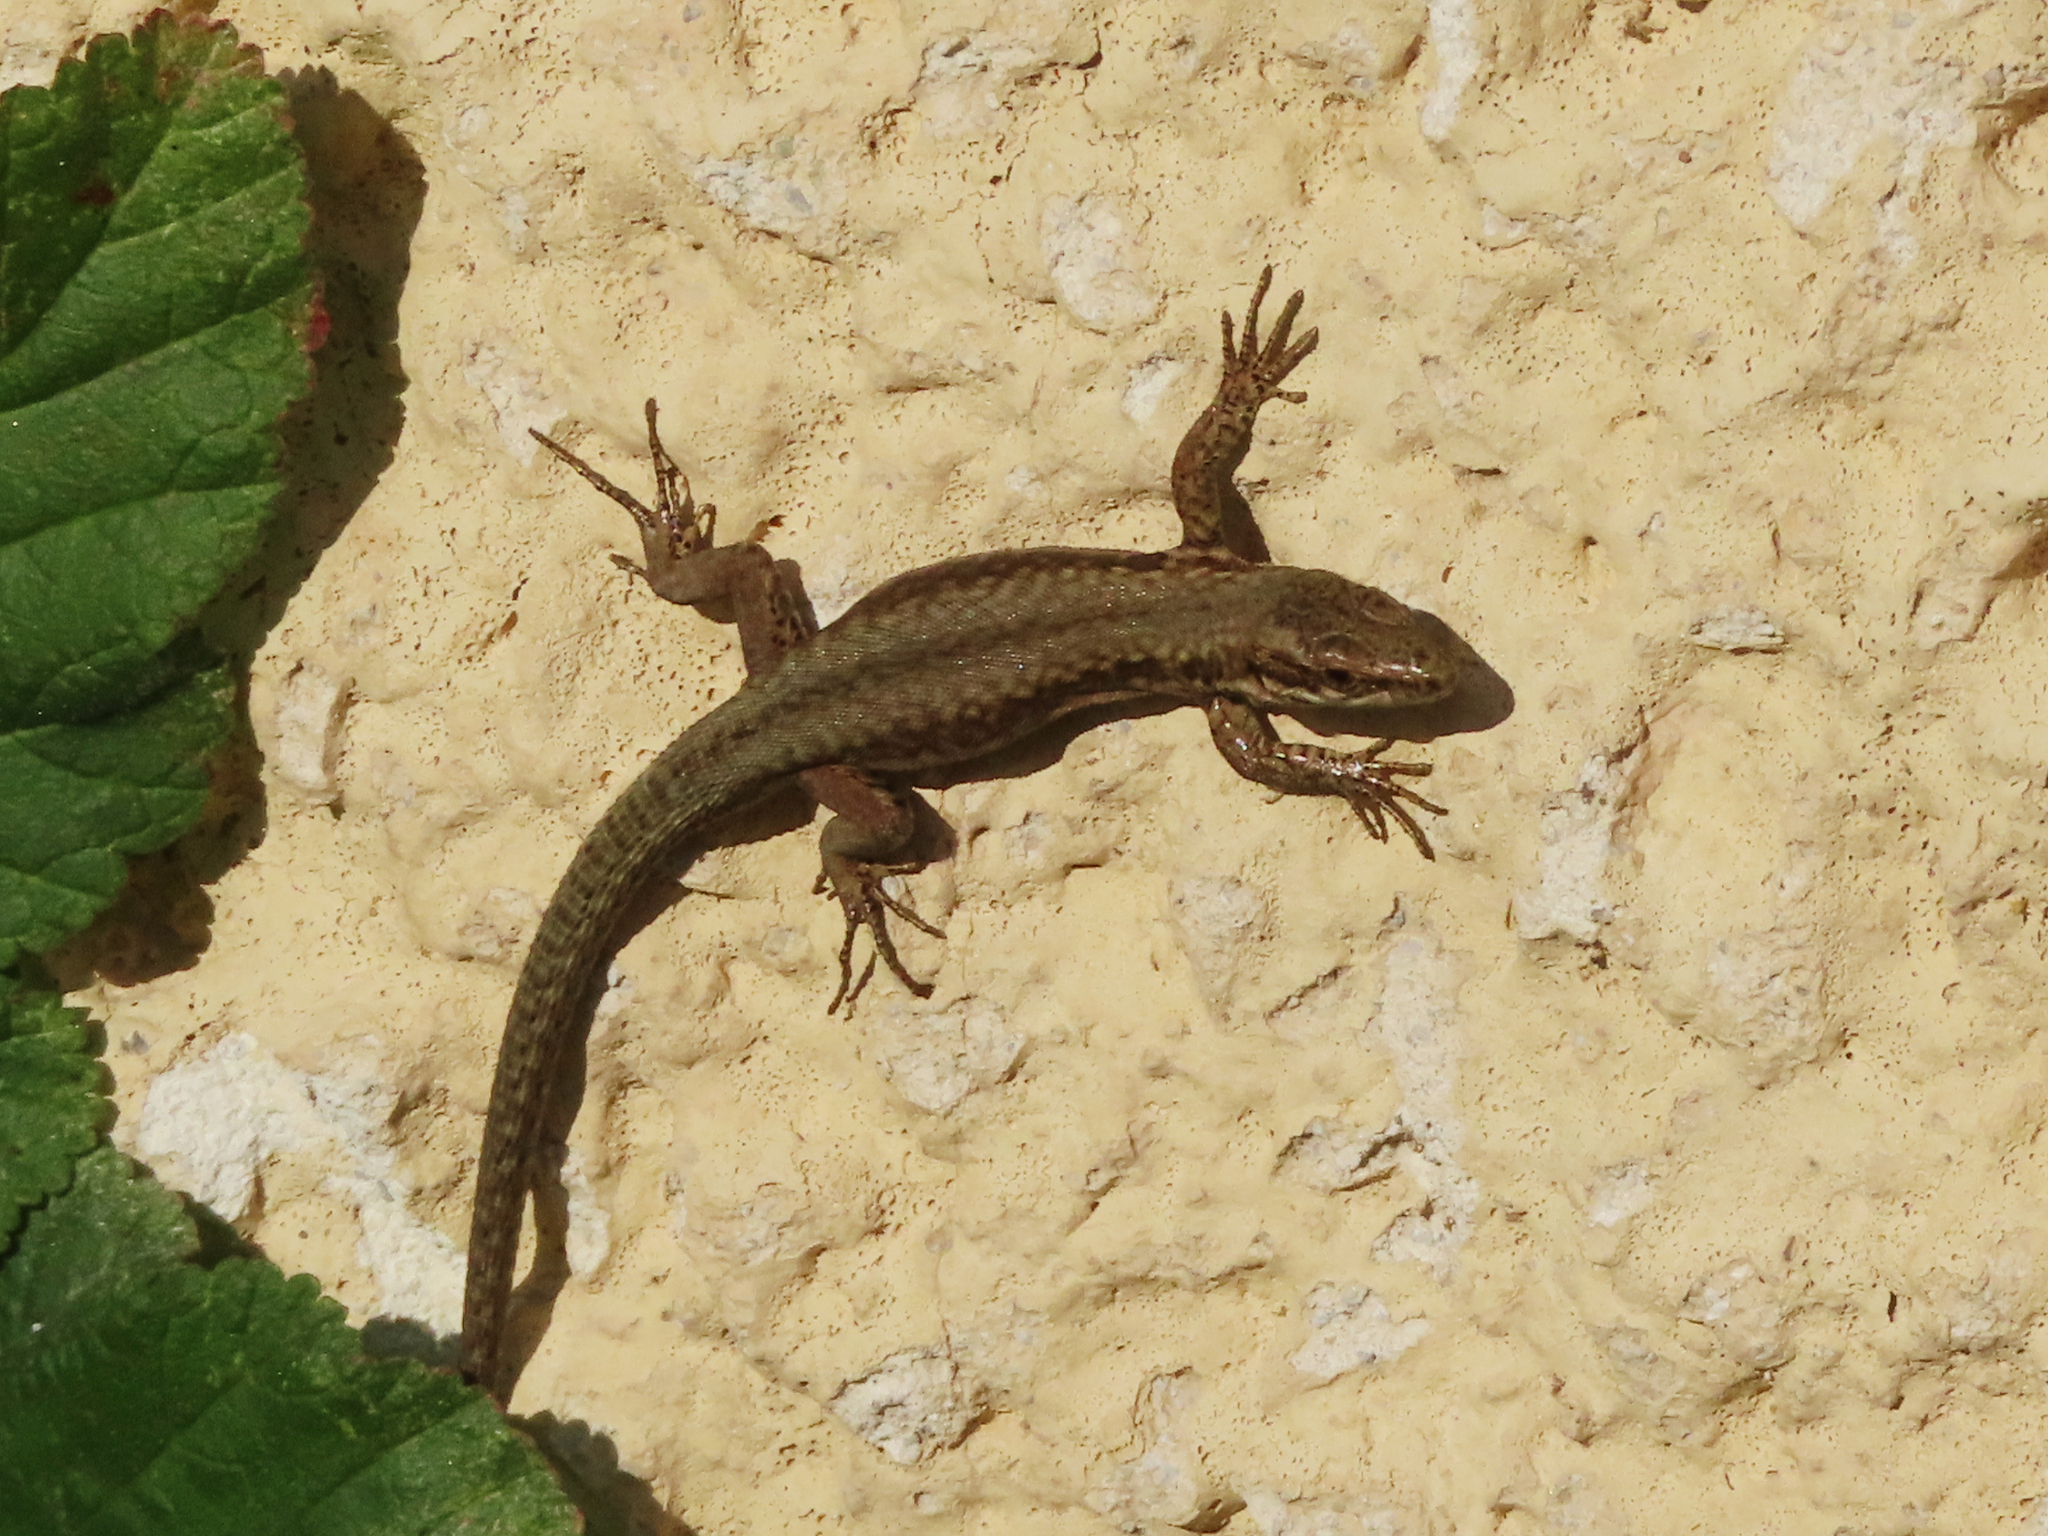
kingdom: Animalia
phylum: Chordata
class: Squamata
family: Lacertidae
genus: Podarcis
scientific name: Podarcis muralis
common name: Common wall lizard
